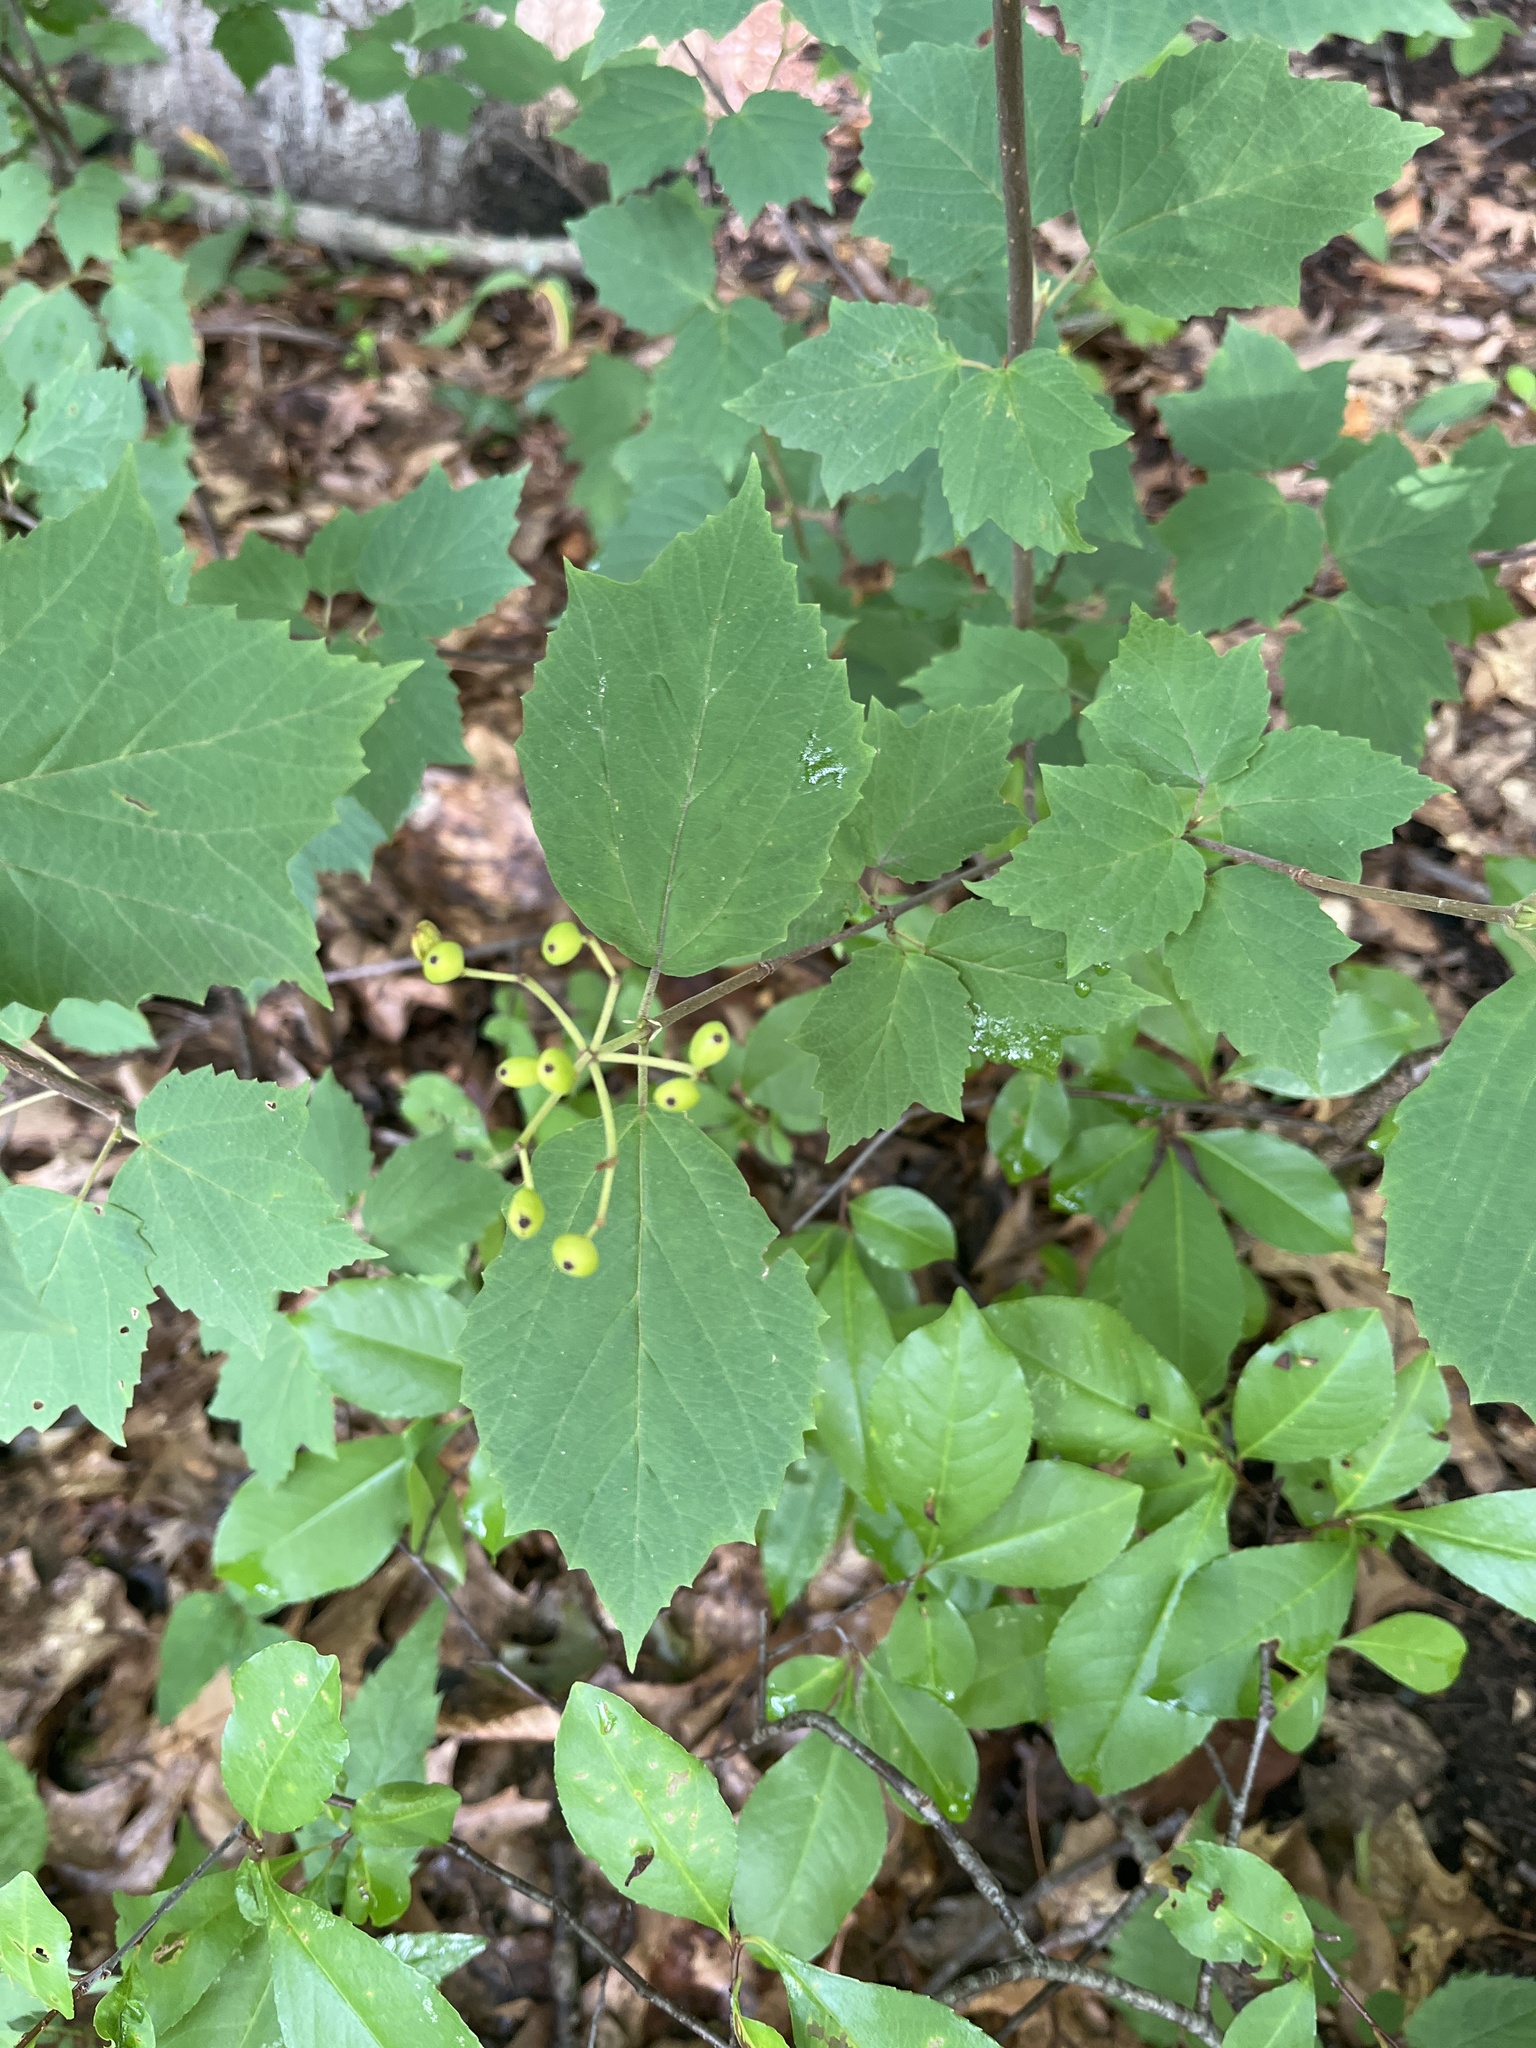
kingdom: Plantae
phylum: Tracheophyta
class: Magnoliopsida
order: Dipsacales
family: Viburnaceae
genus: Viburnum
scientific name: Viburnum acerifolium
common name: Dockmackie
